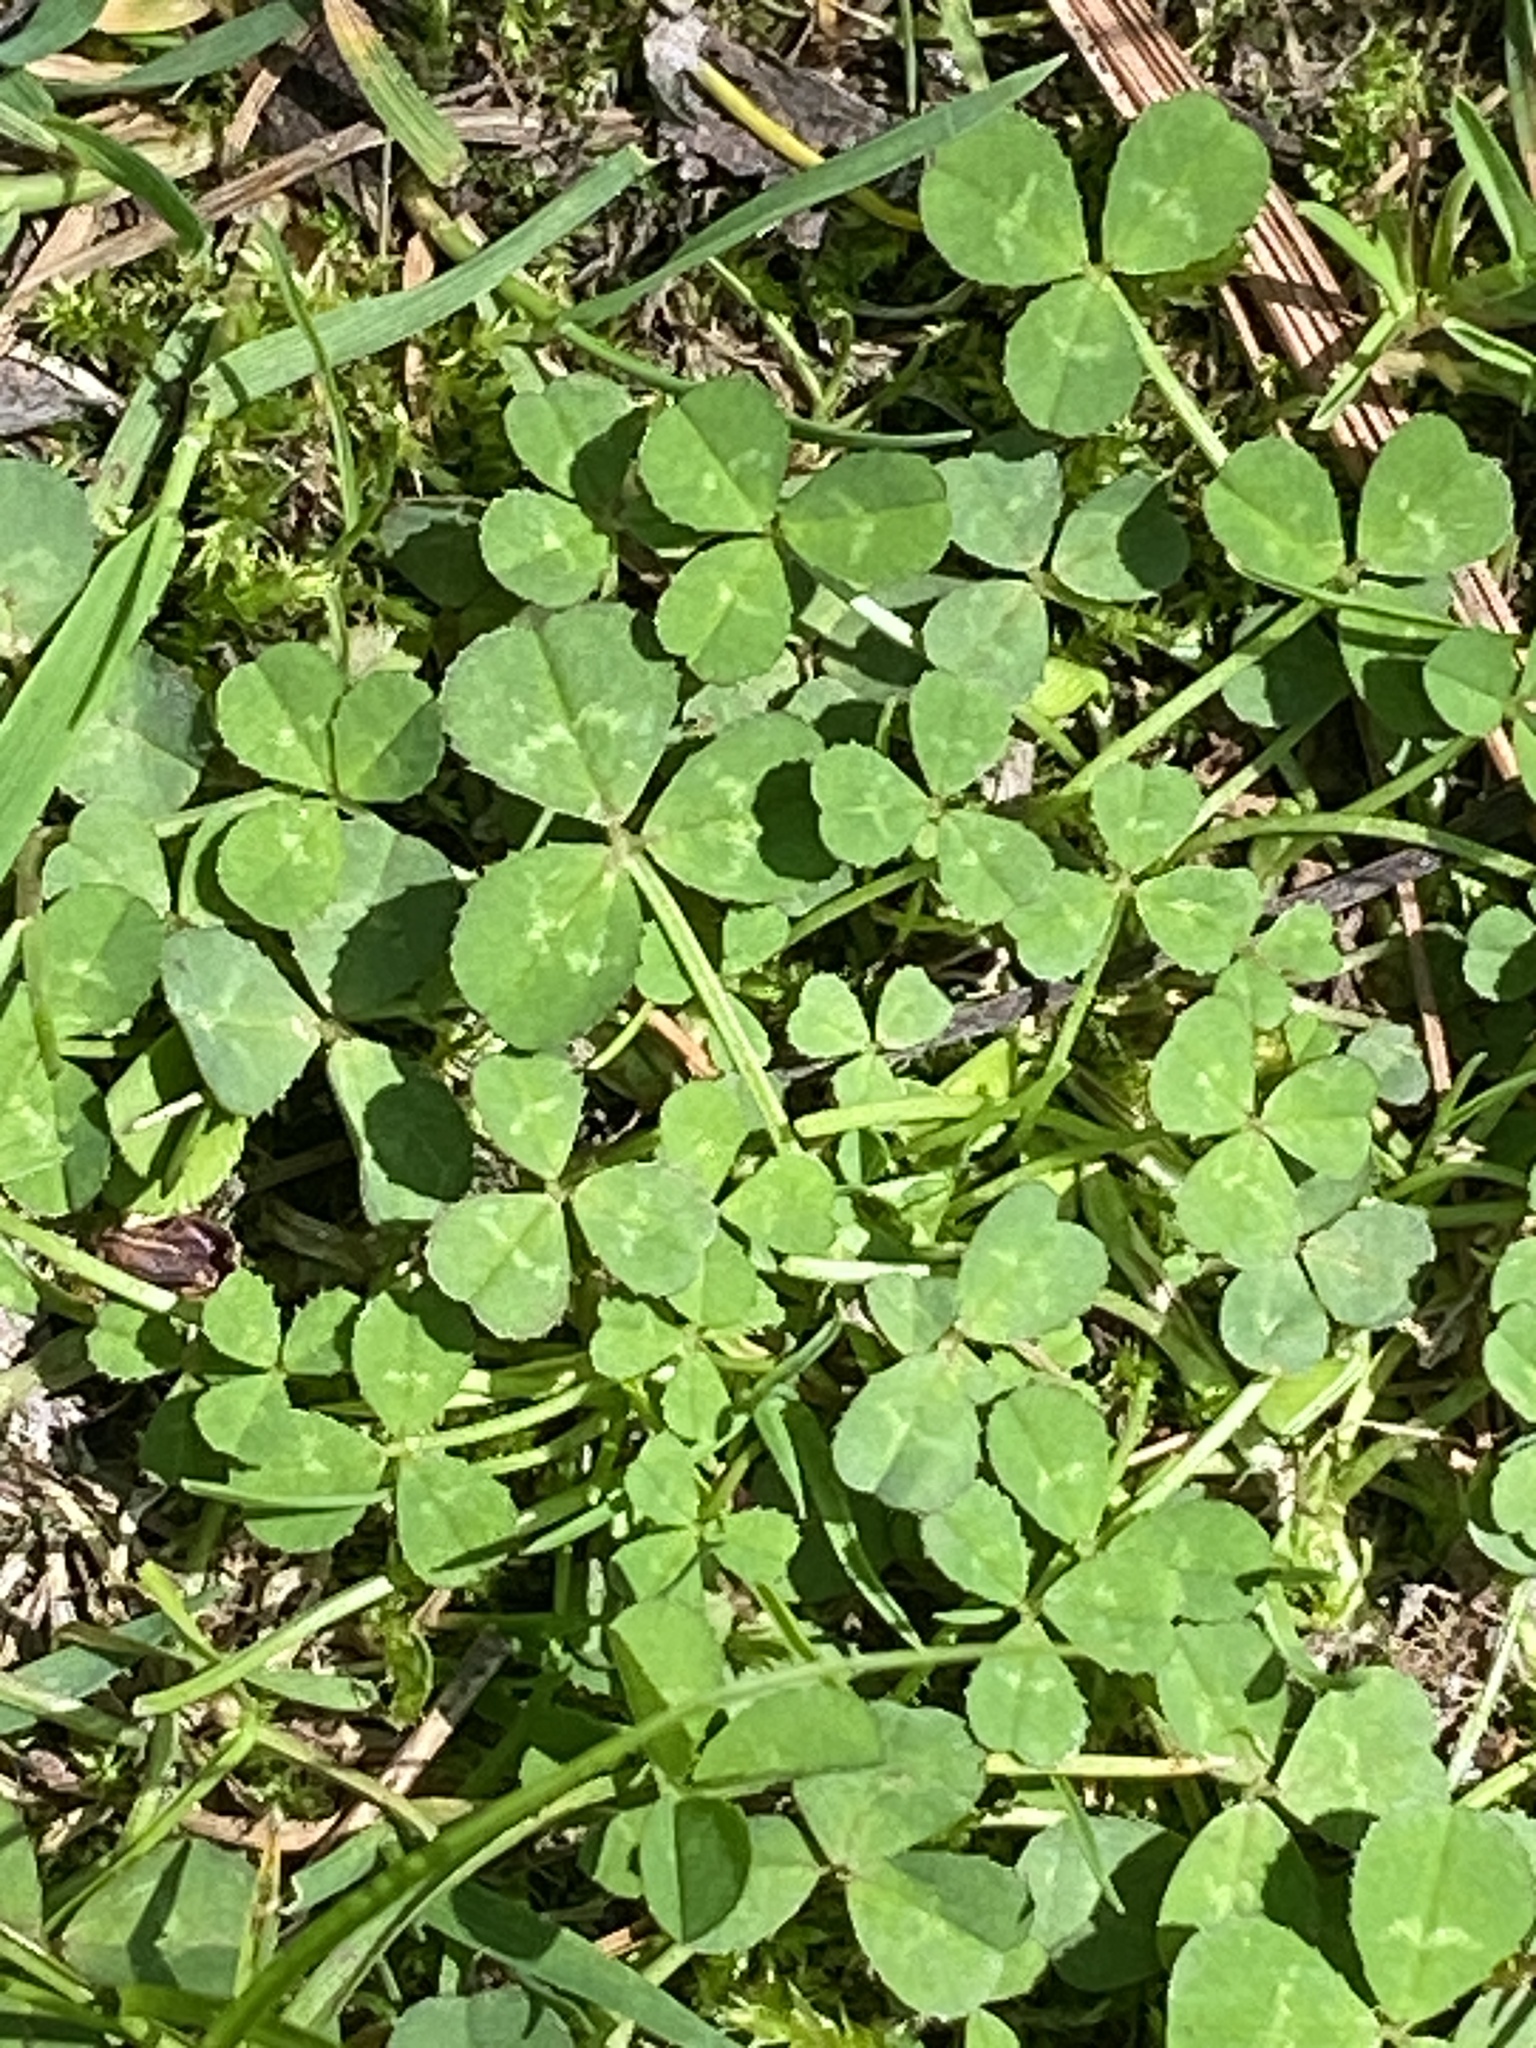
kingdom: Plantae
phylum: Tracheophyta
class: Magnoliopsida
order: Fabales
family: Fabaceae
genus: Trifolium
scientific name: Trifolium repens
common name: White clover
